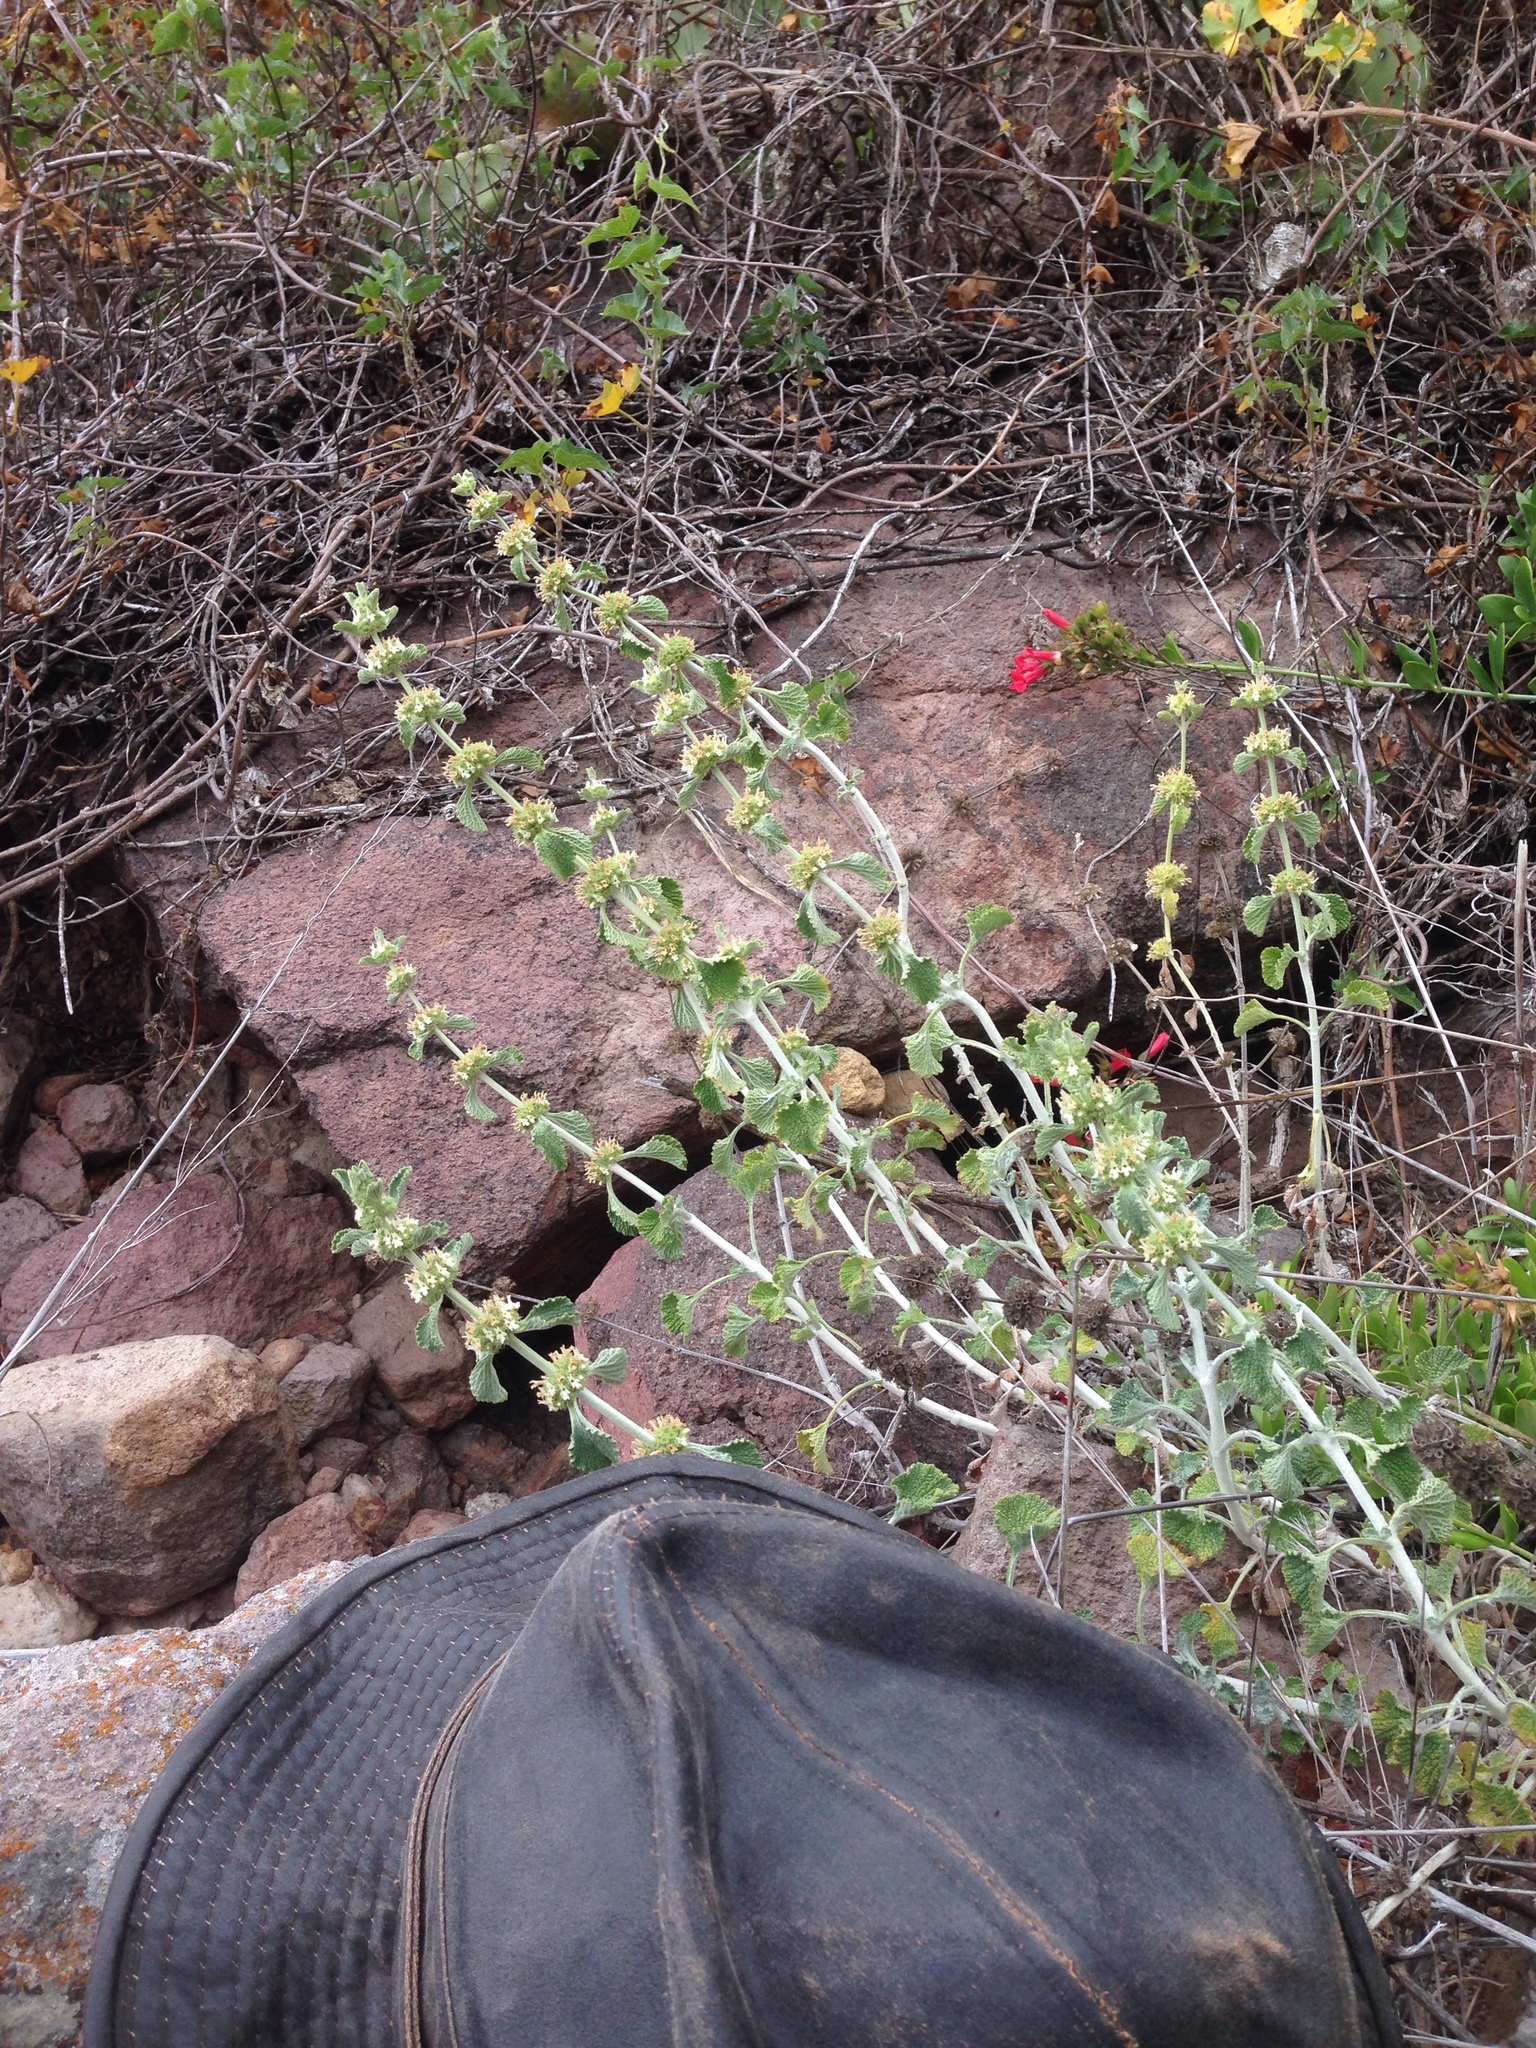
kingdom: Plantae
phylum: Tracheophyta
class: Magnoliopsida
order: Lamiales
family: Lamiaceae
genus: Marrubium
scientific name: Marrubium vulgare
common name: Horehound
